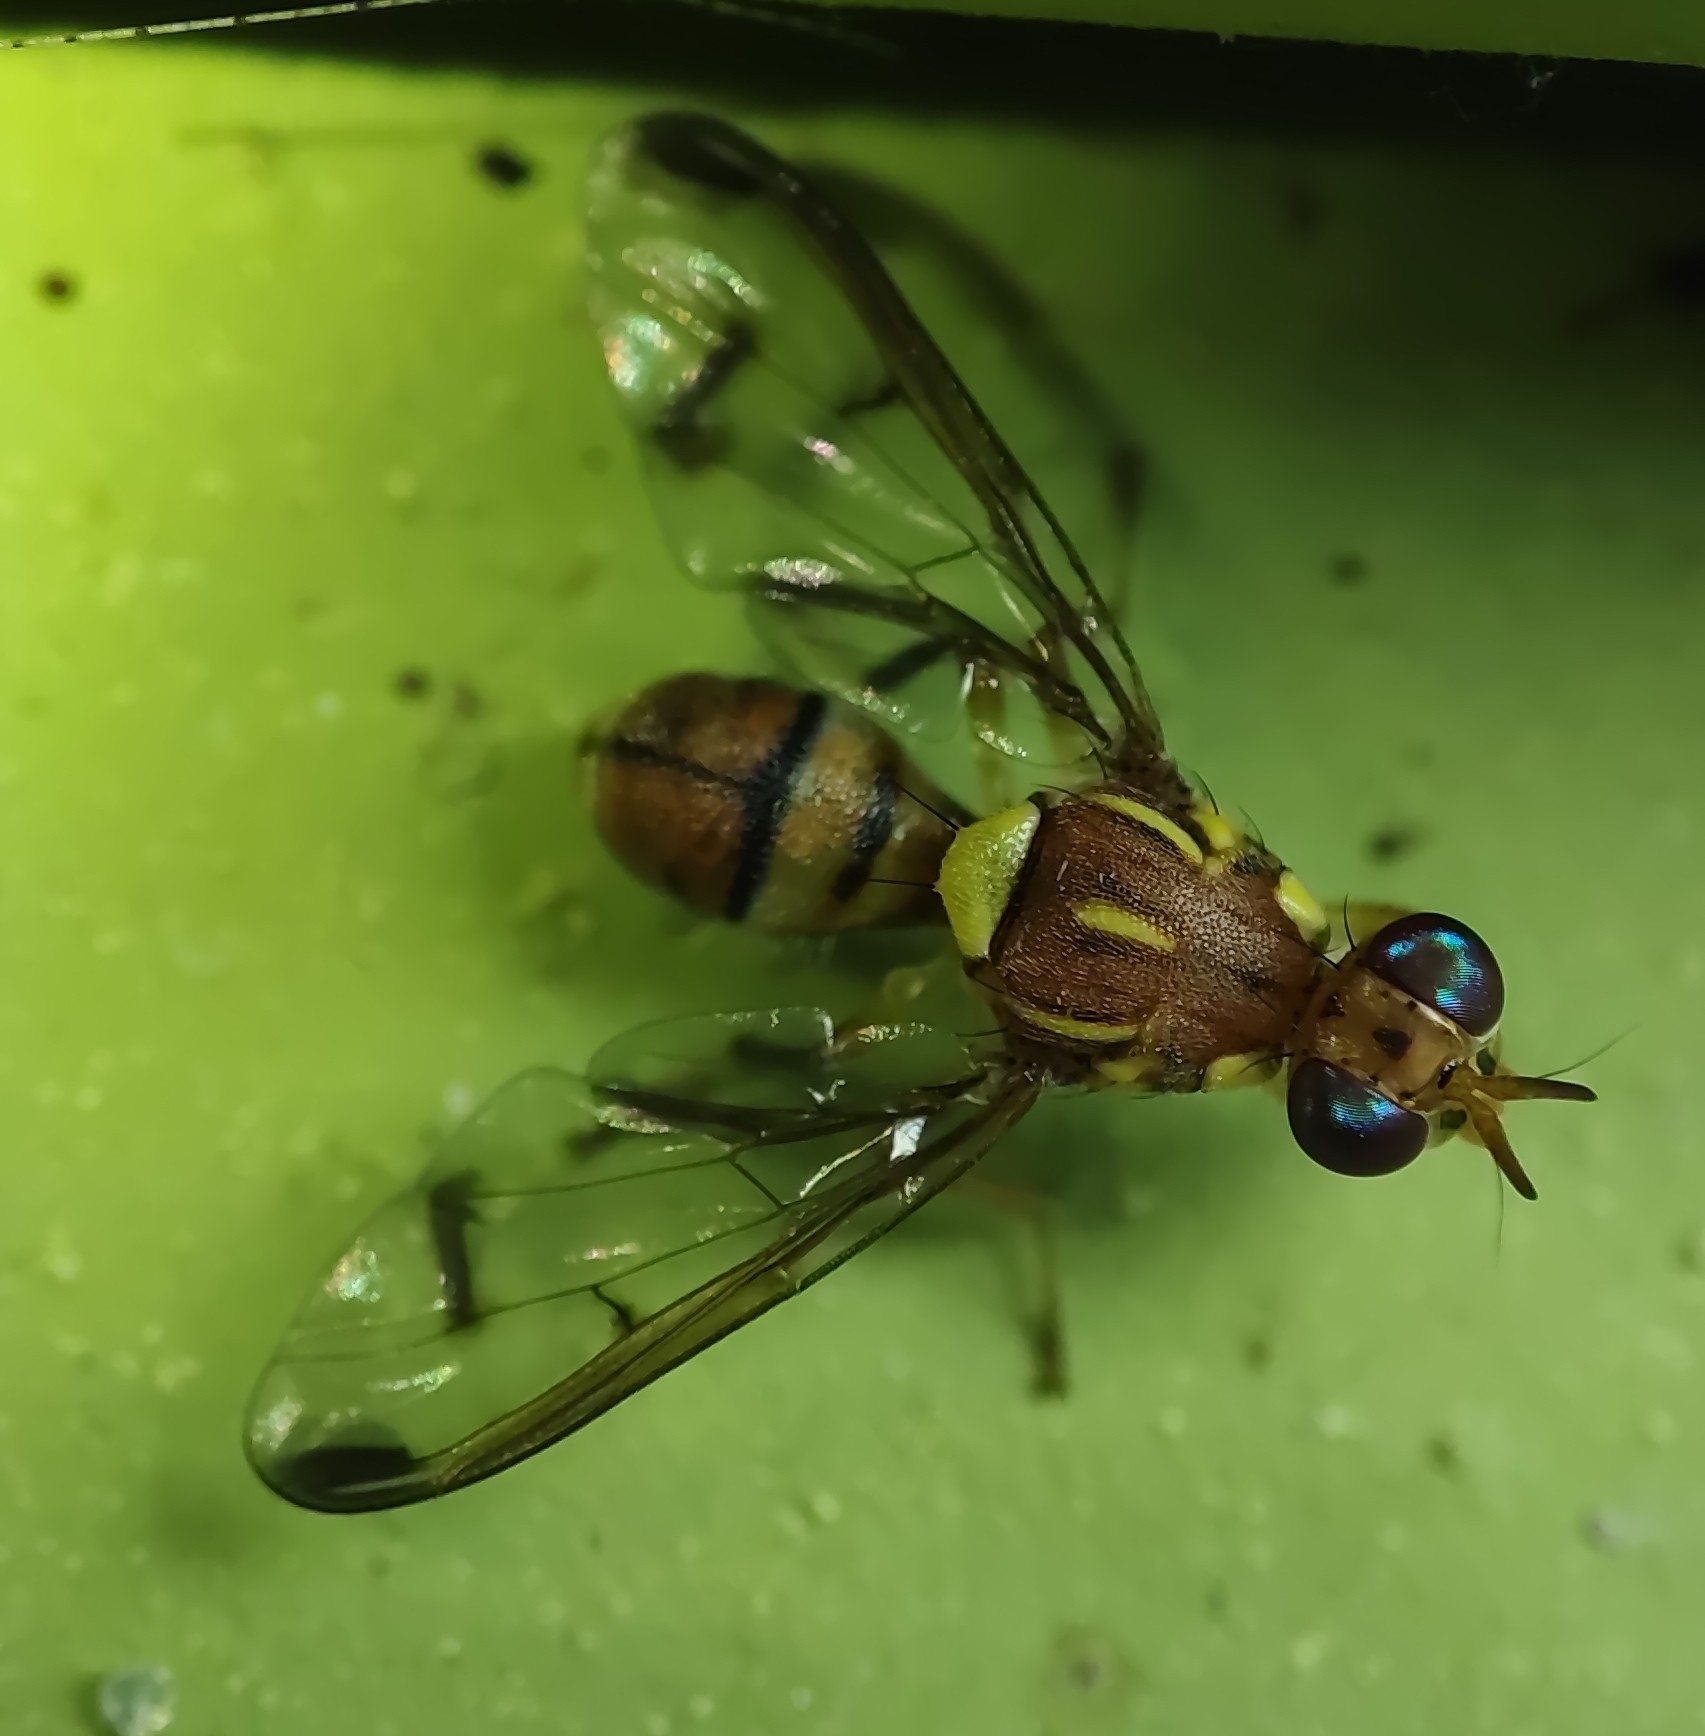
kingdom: Animalia
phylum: Arthropoda
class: Insecta
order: Diptera
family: Tephritidae
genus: Bactrocera
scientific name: Bactrocera cucurbitae
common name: Melon fly
